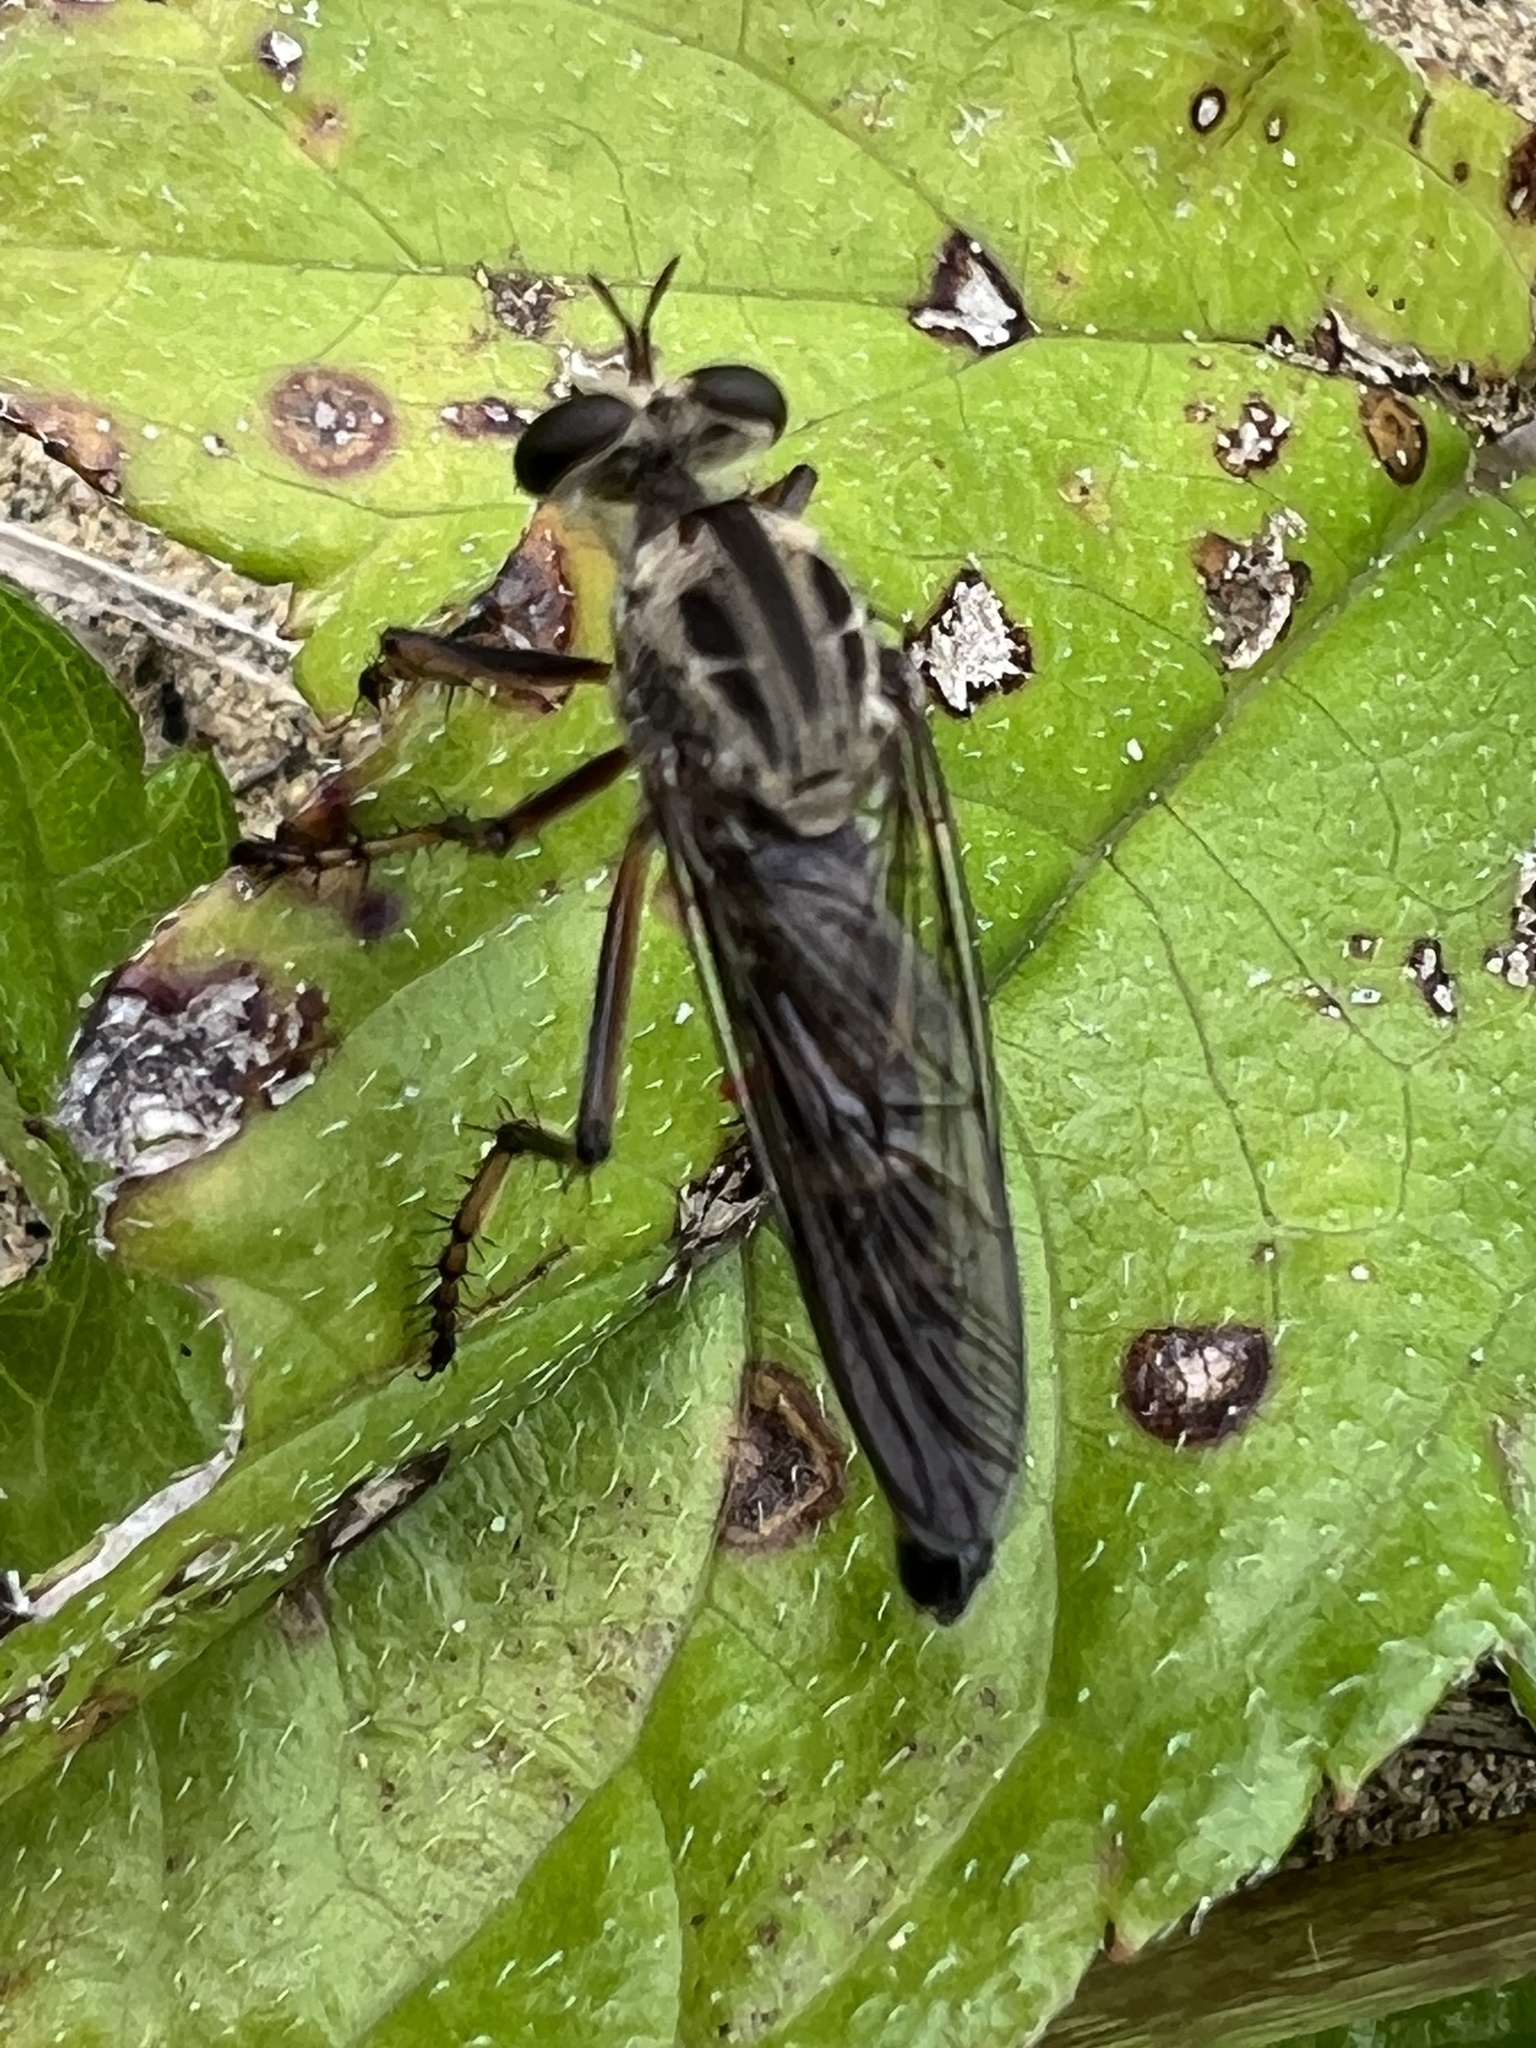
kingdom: Animalia
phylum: Arthropoda
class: Insecta
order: Diptera
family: Asilidae
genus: Diogmites
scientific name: Diogmites litoralis
